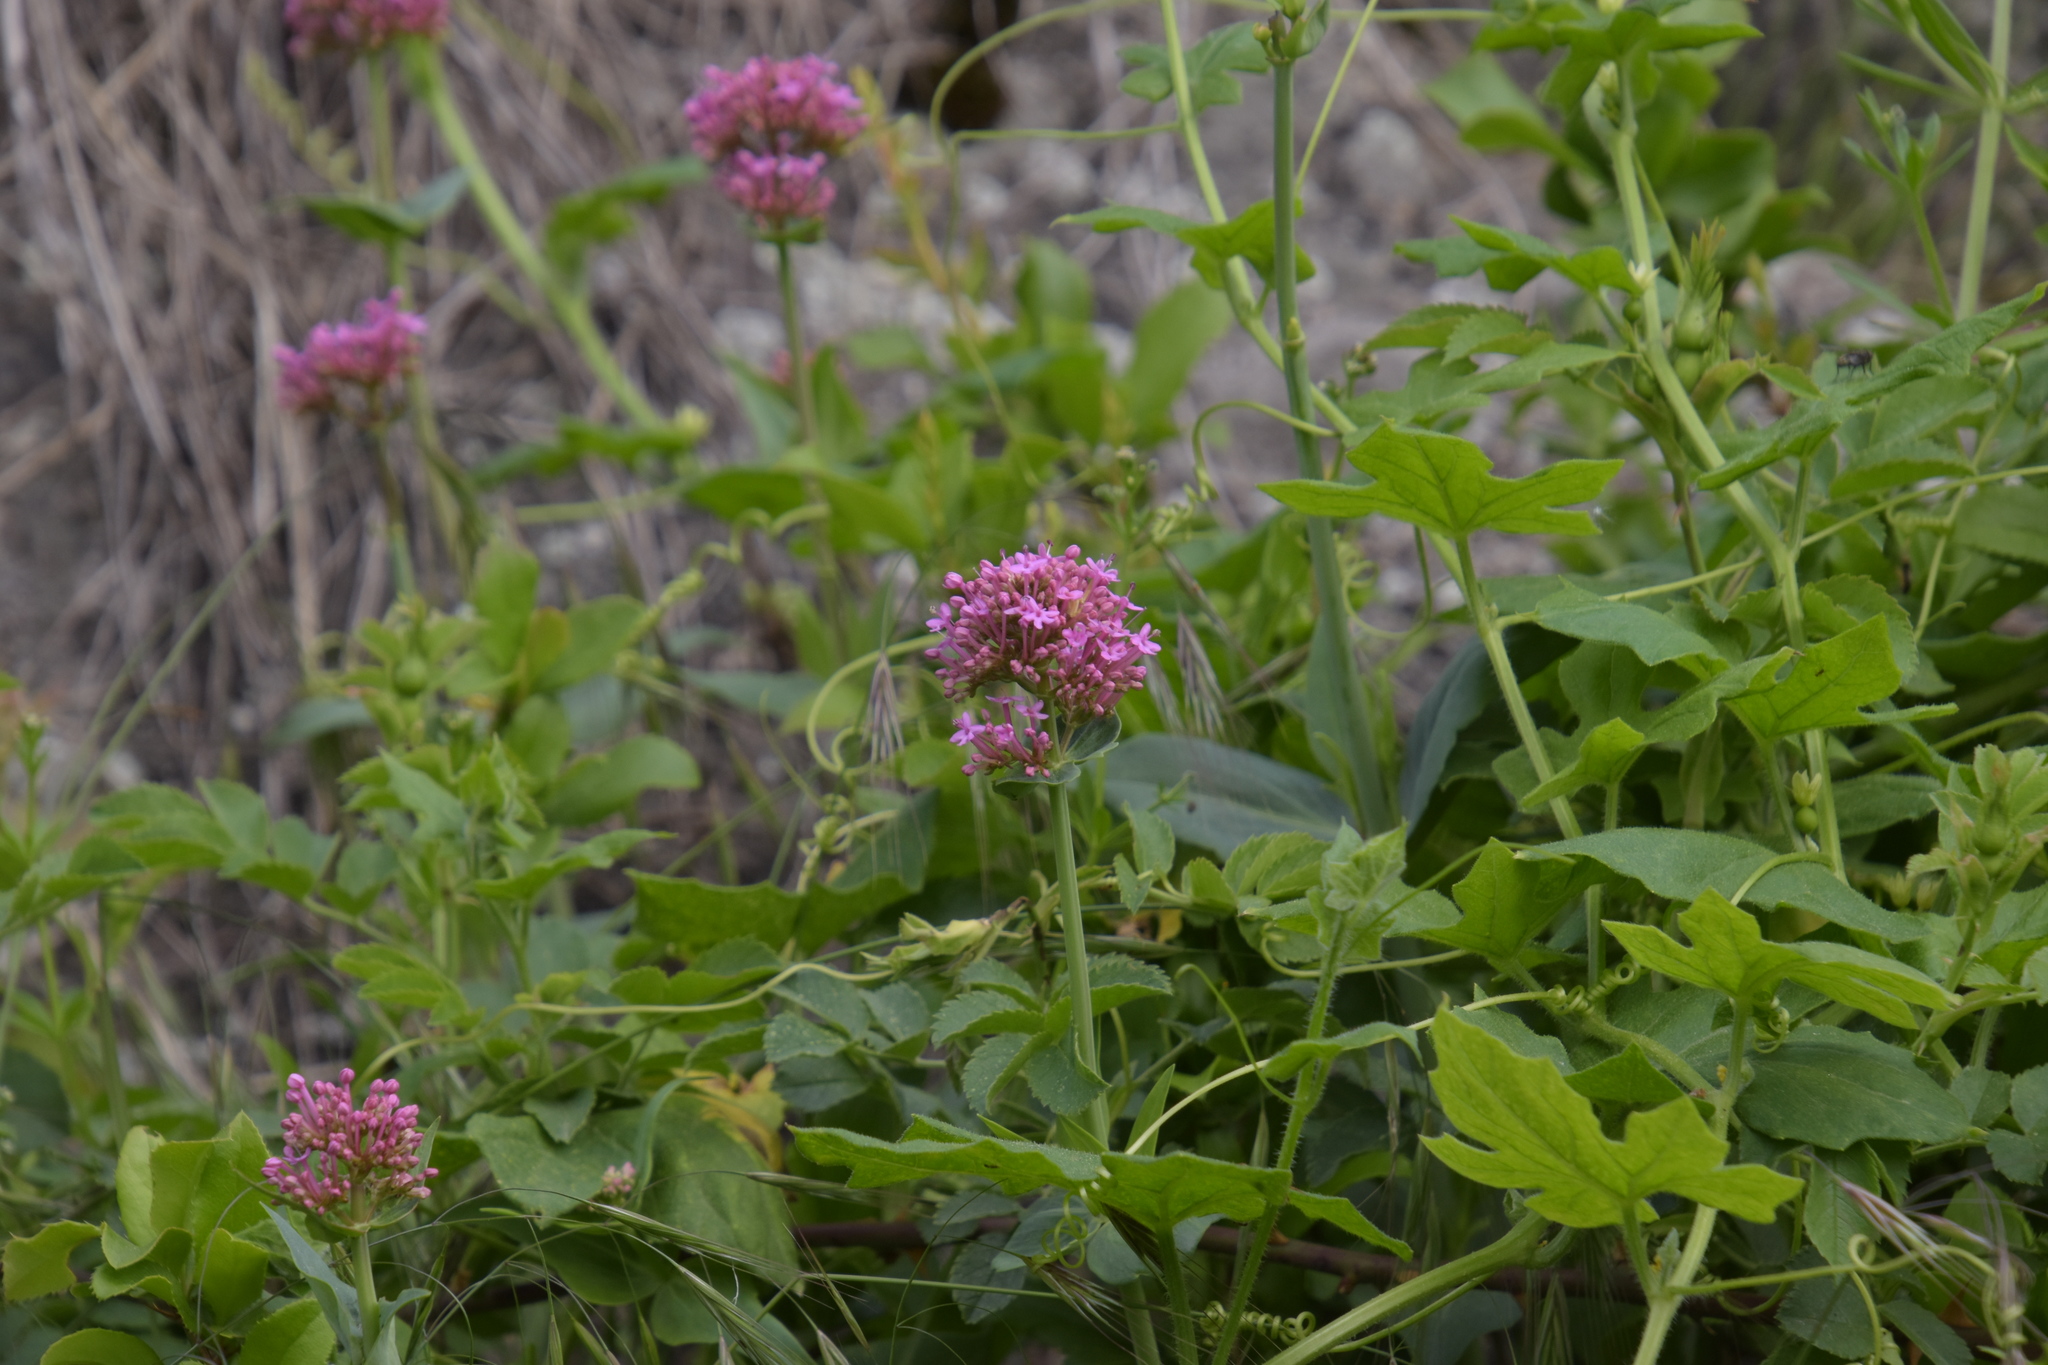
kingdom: Plantae
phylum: Tracheophyta
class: Magnoliopsida
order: Dipsacales
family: Caprifoliaceae
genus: Centranthus
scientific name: Centranthus ruber
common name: Red valerian
